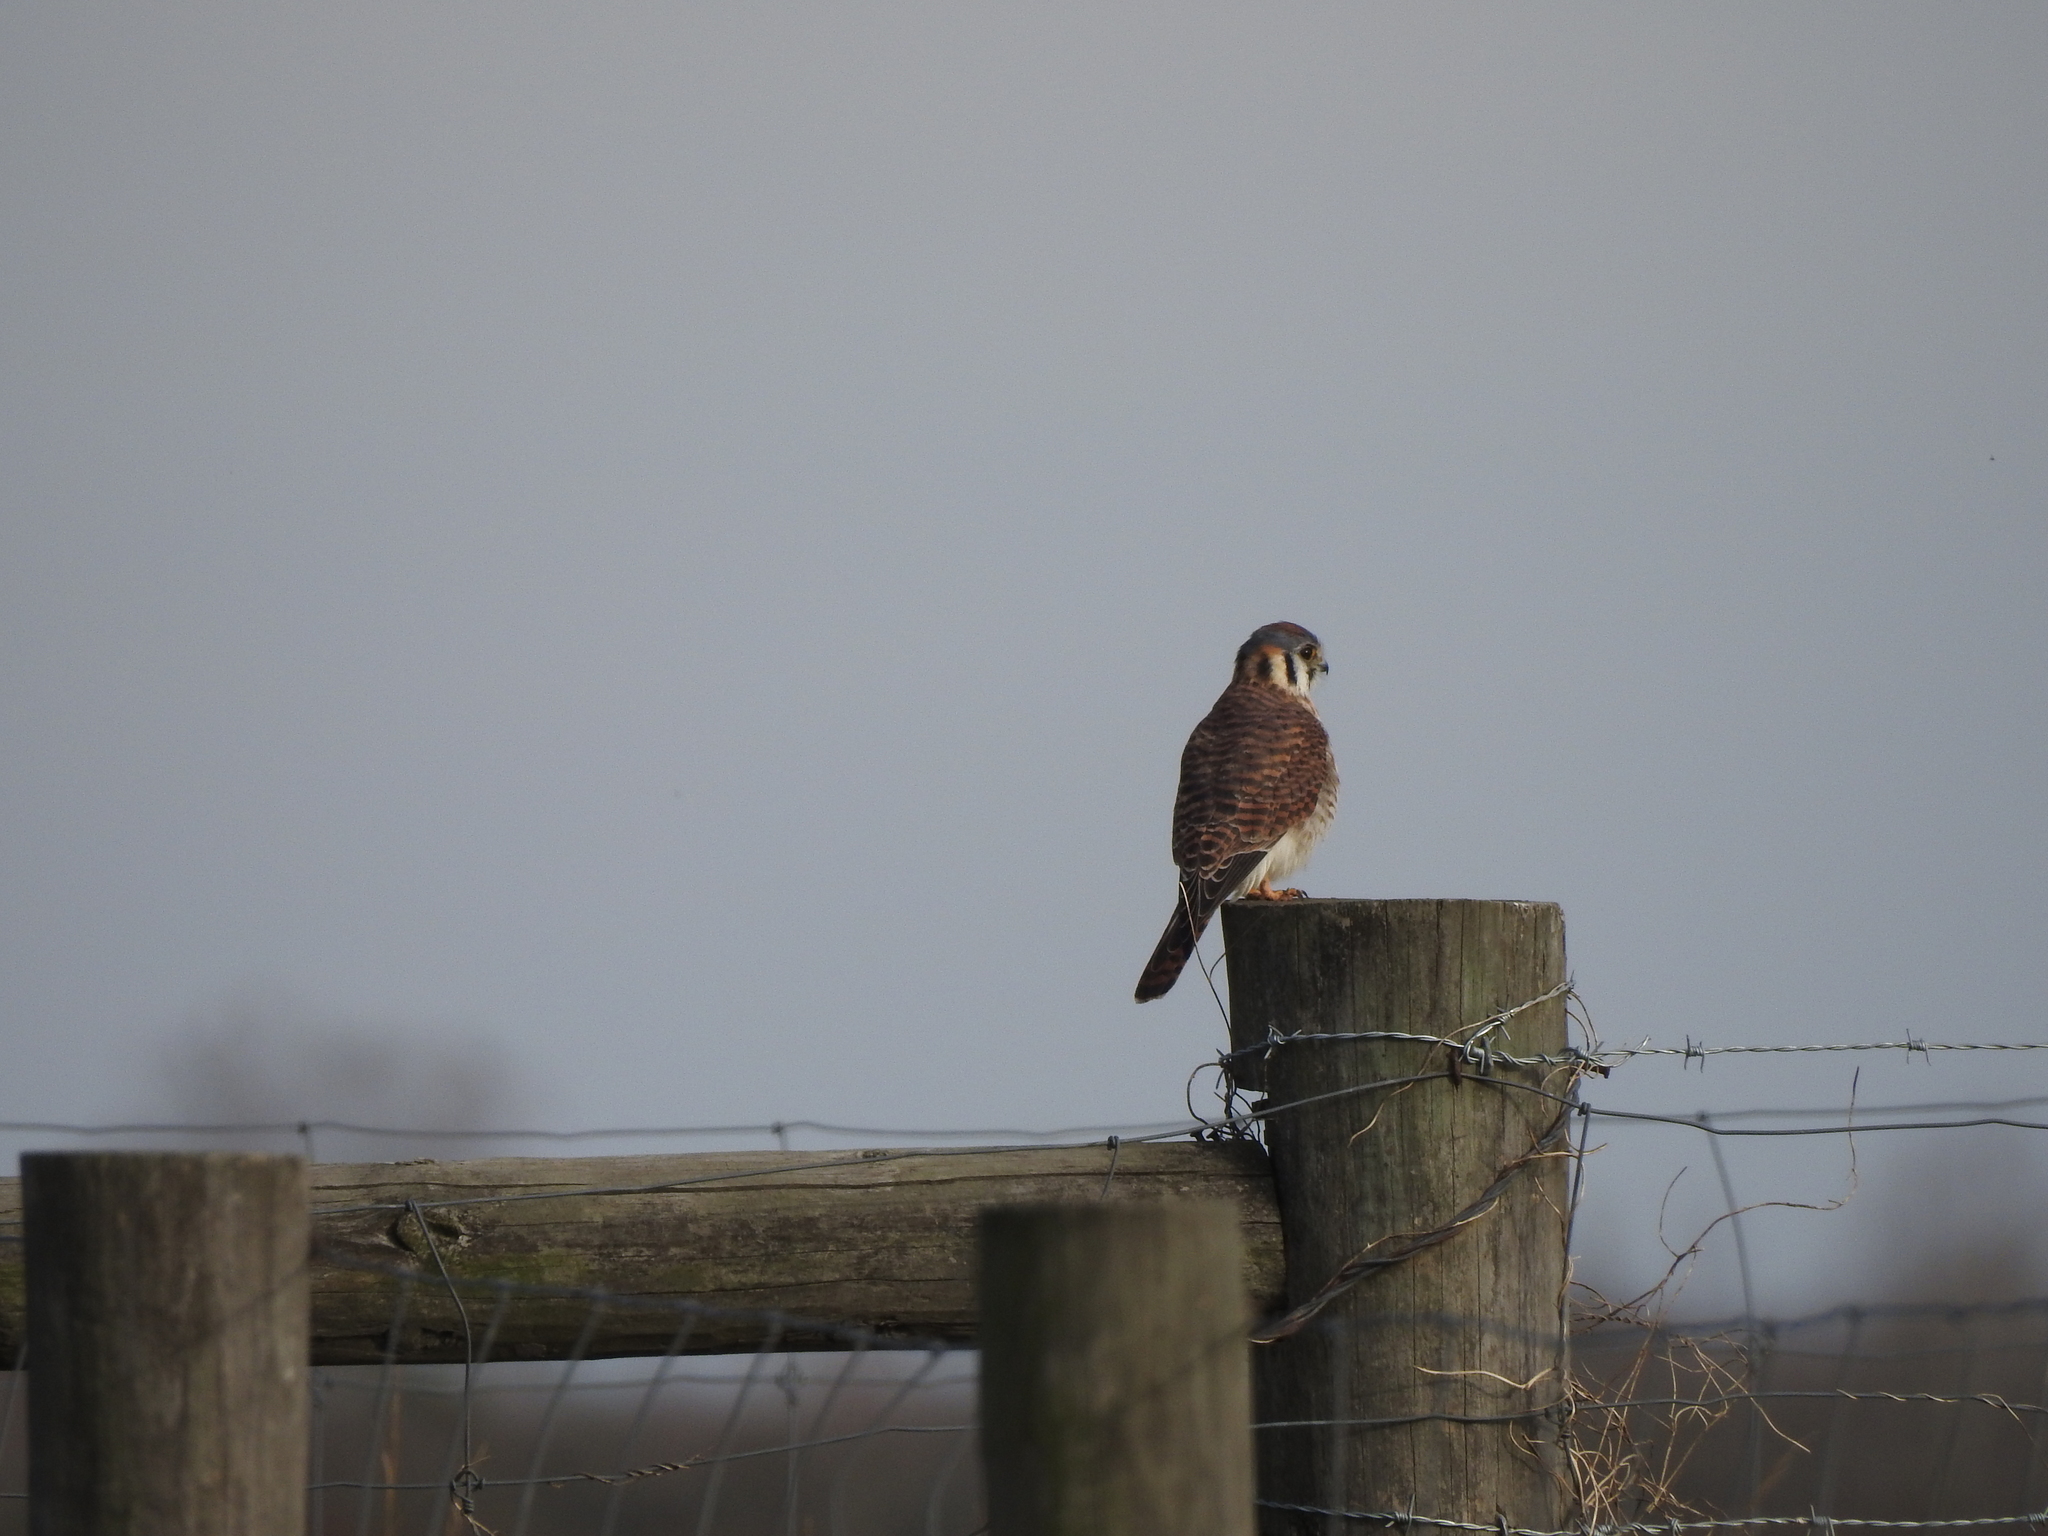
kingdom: Animalia
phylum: Chordata
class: Aves
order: Falconiformes
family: Falconidae
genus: Falco
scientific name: Falco sparverius
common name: American kestrel
